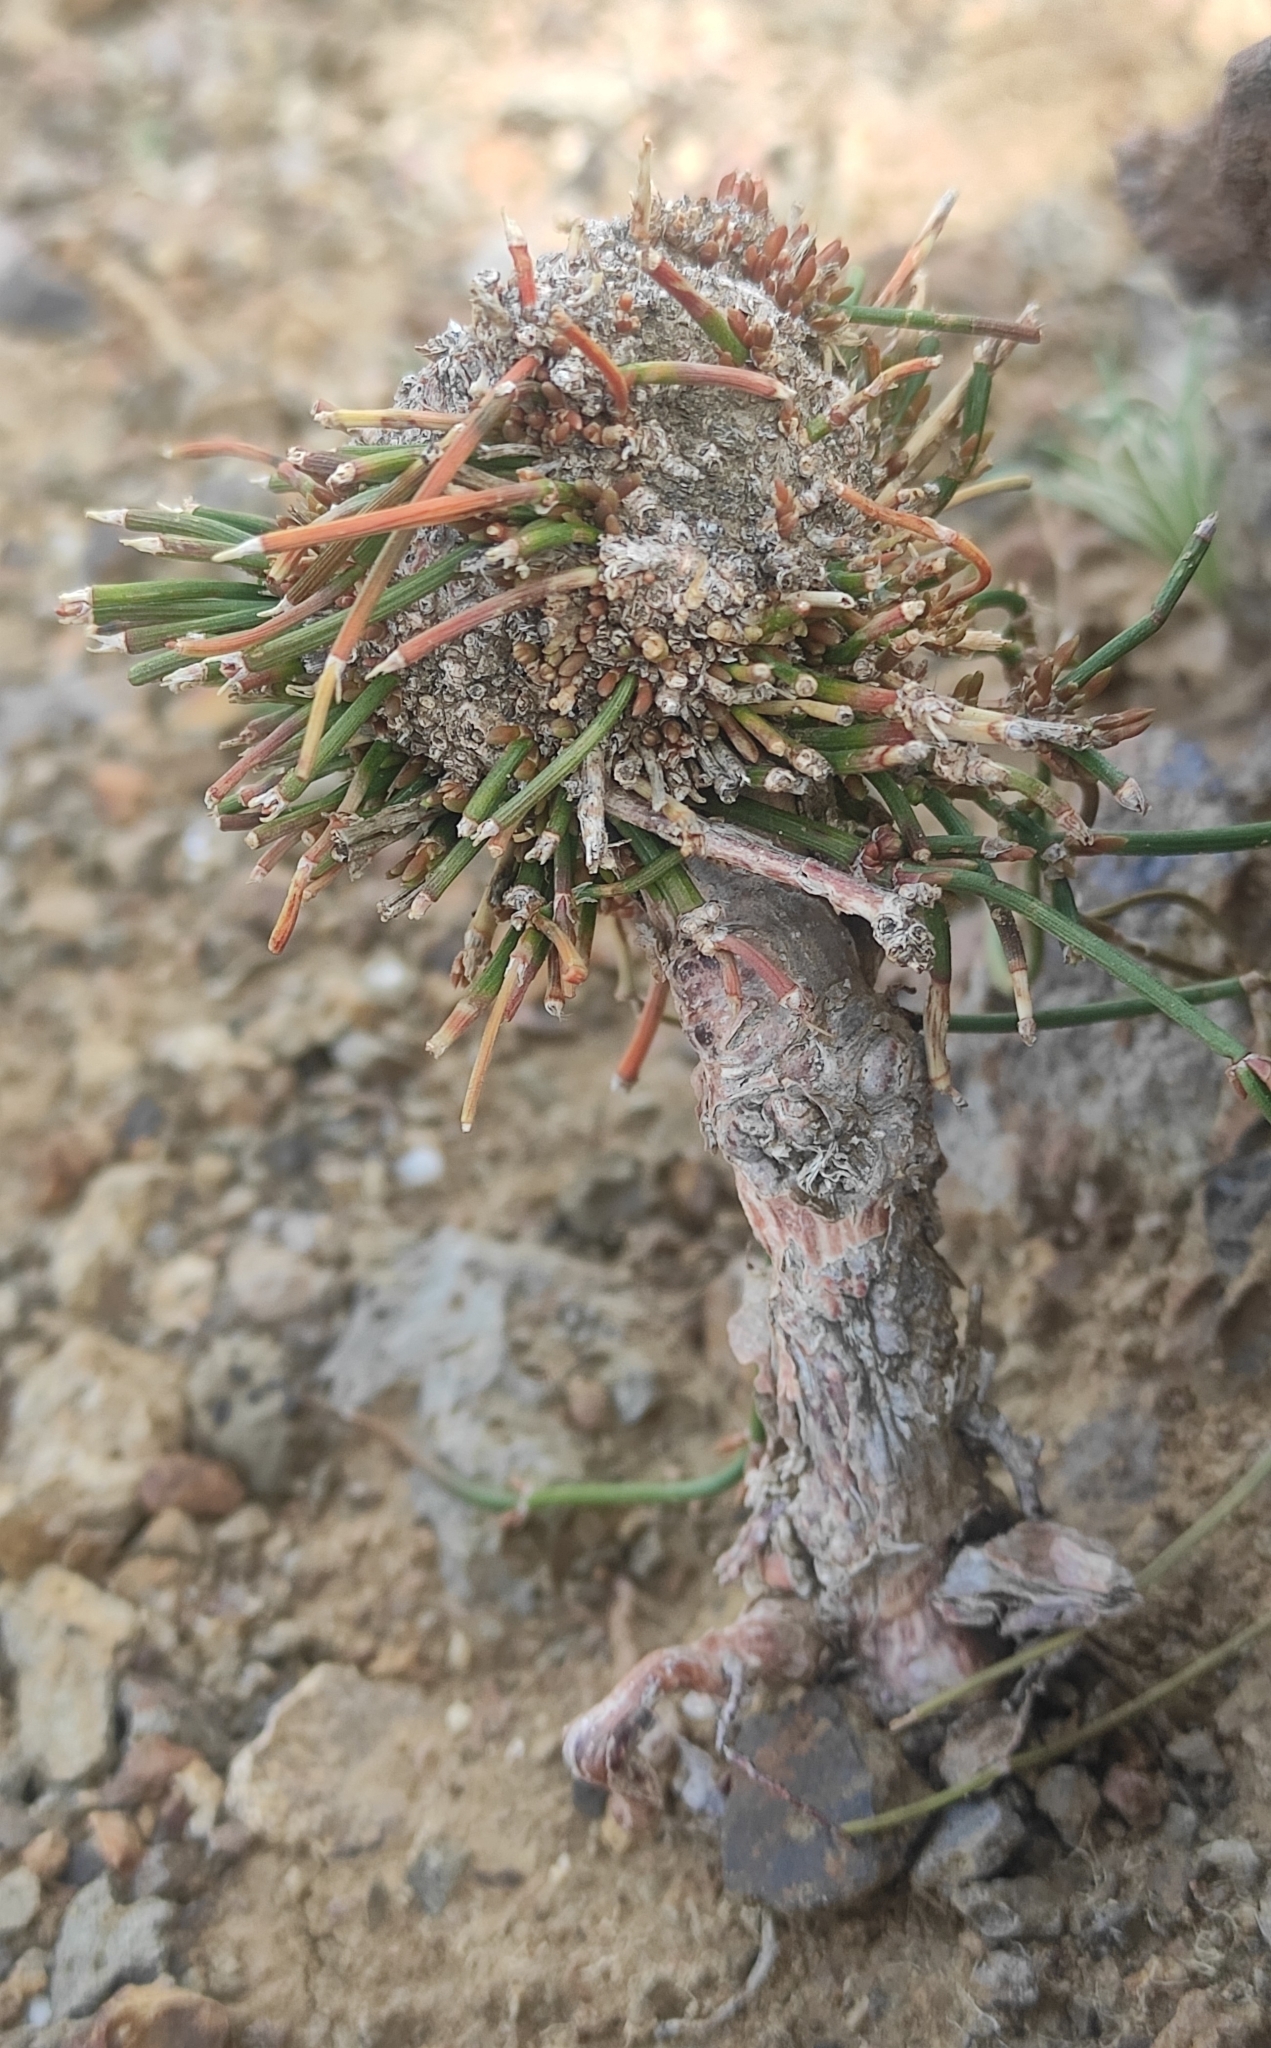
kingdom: Plantae
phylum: Tracheophyta
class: Gnetopsida
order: Ephedrales
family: Ephedraceae
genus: Ephedra
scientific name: Ephedra monosperma
